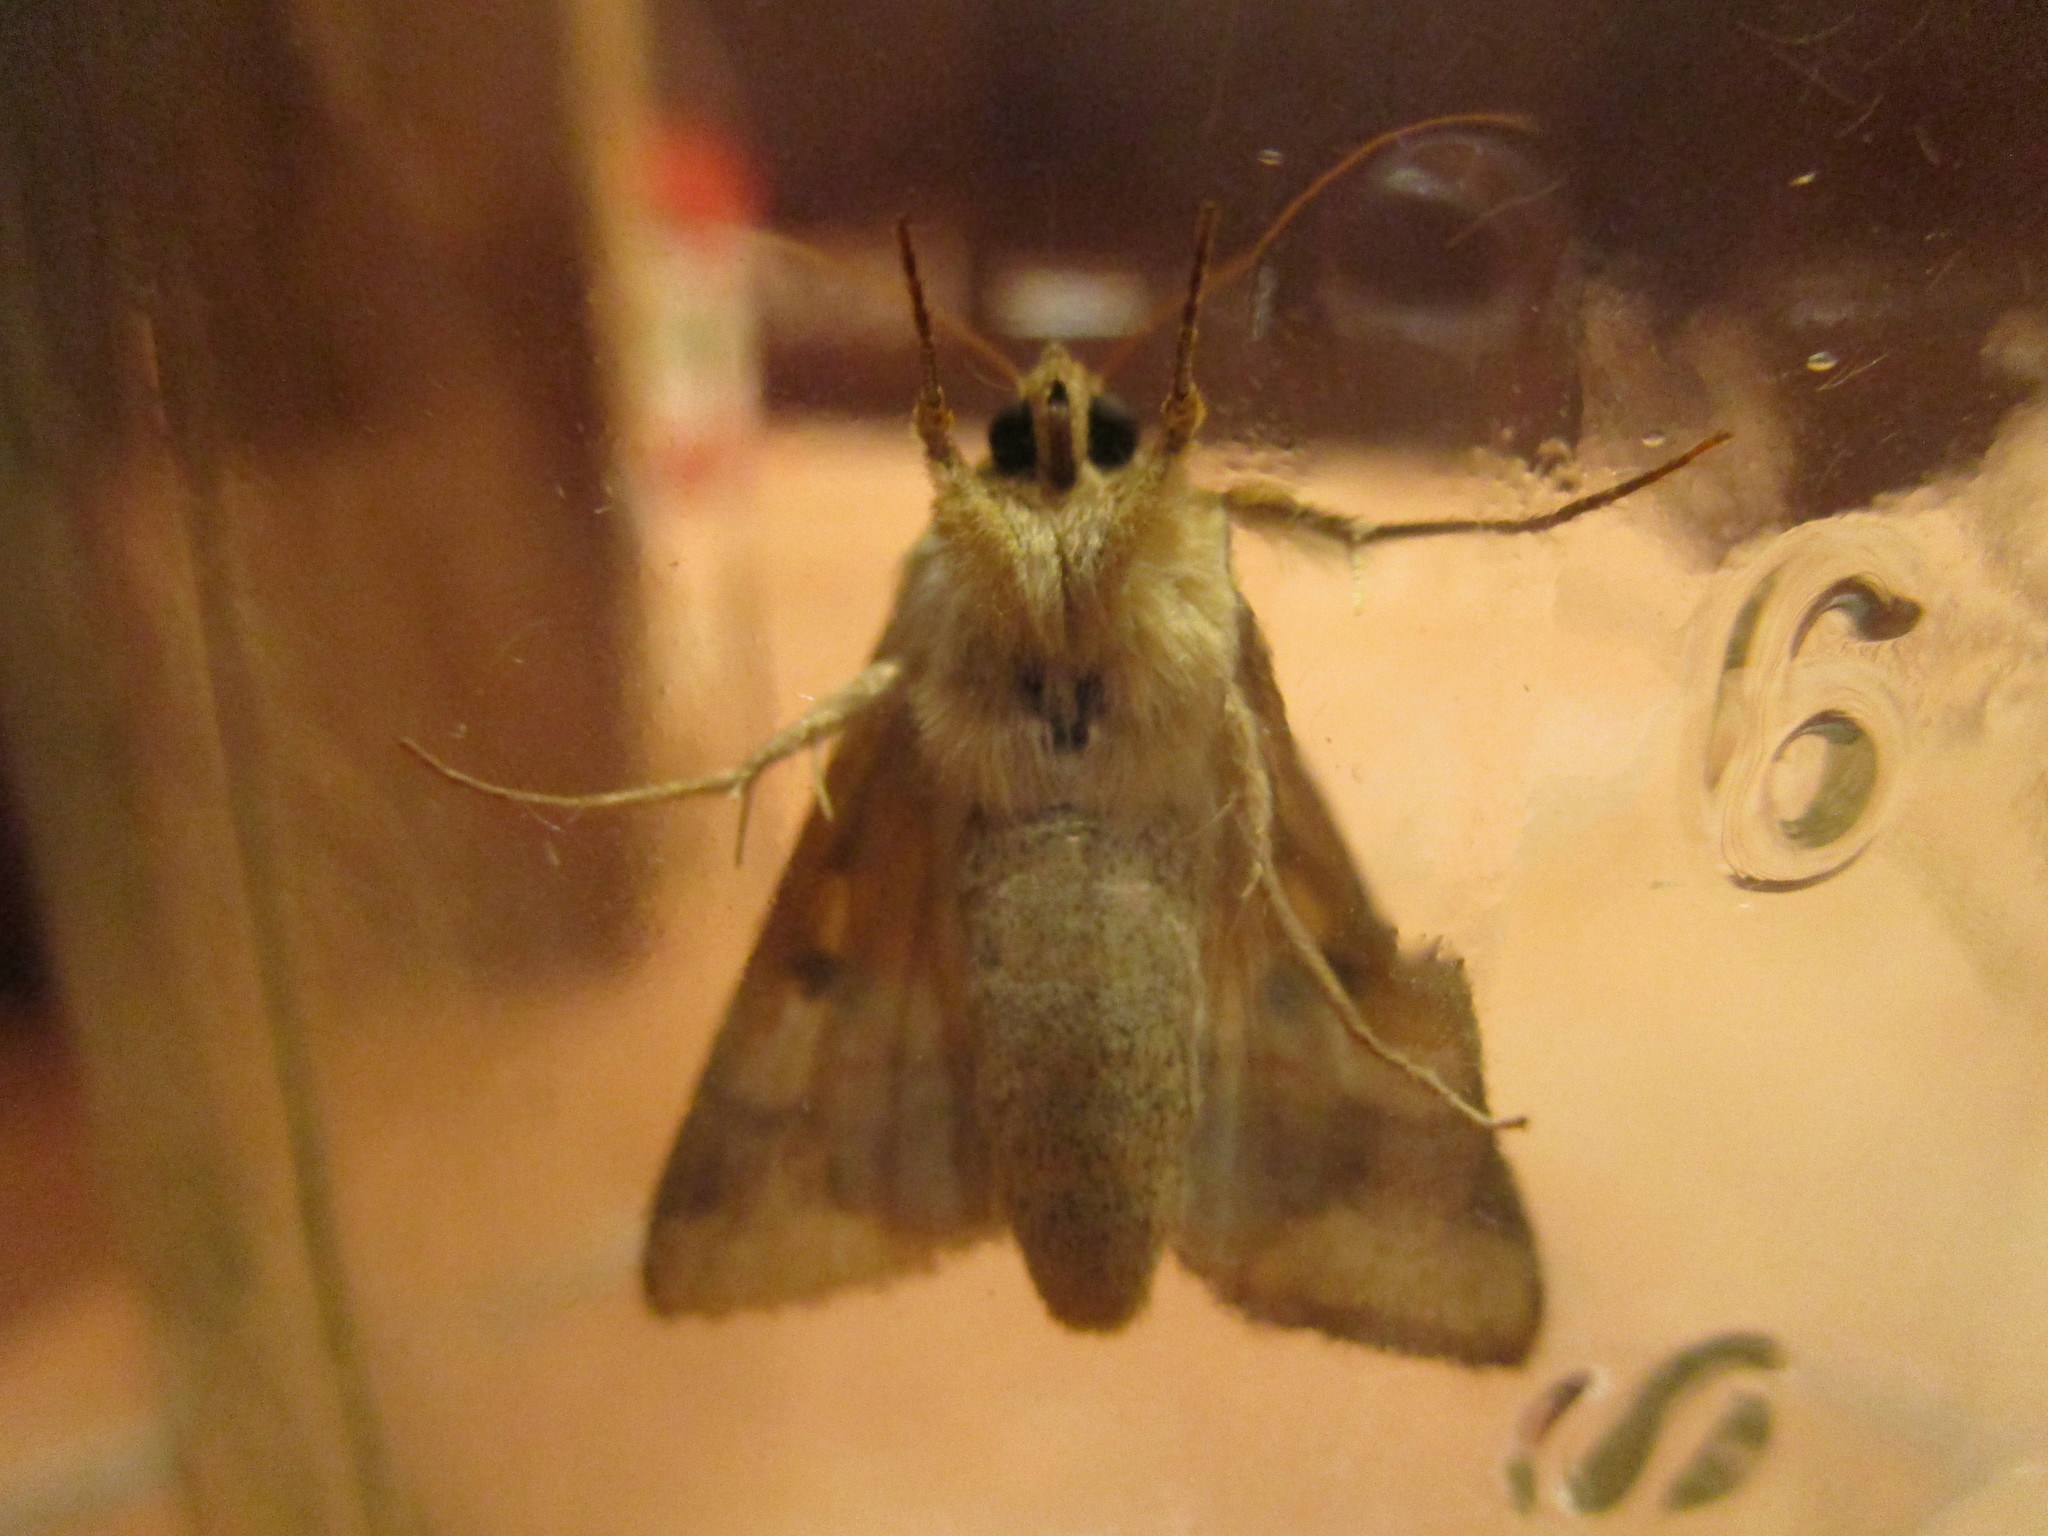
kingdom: Animalia
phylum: Arthropoda
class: Insecta
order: Lepidoptera
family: Noctuidae
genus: Helicoverpa
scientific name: Helicoverpa zea
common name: Bollworm
